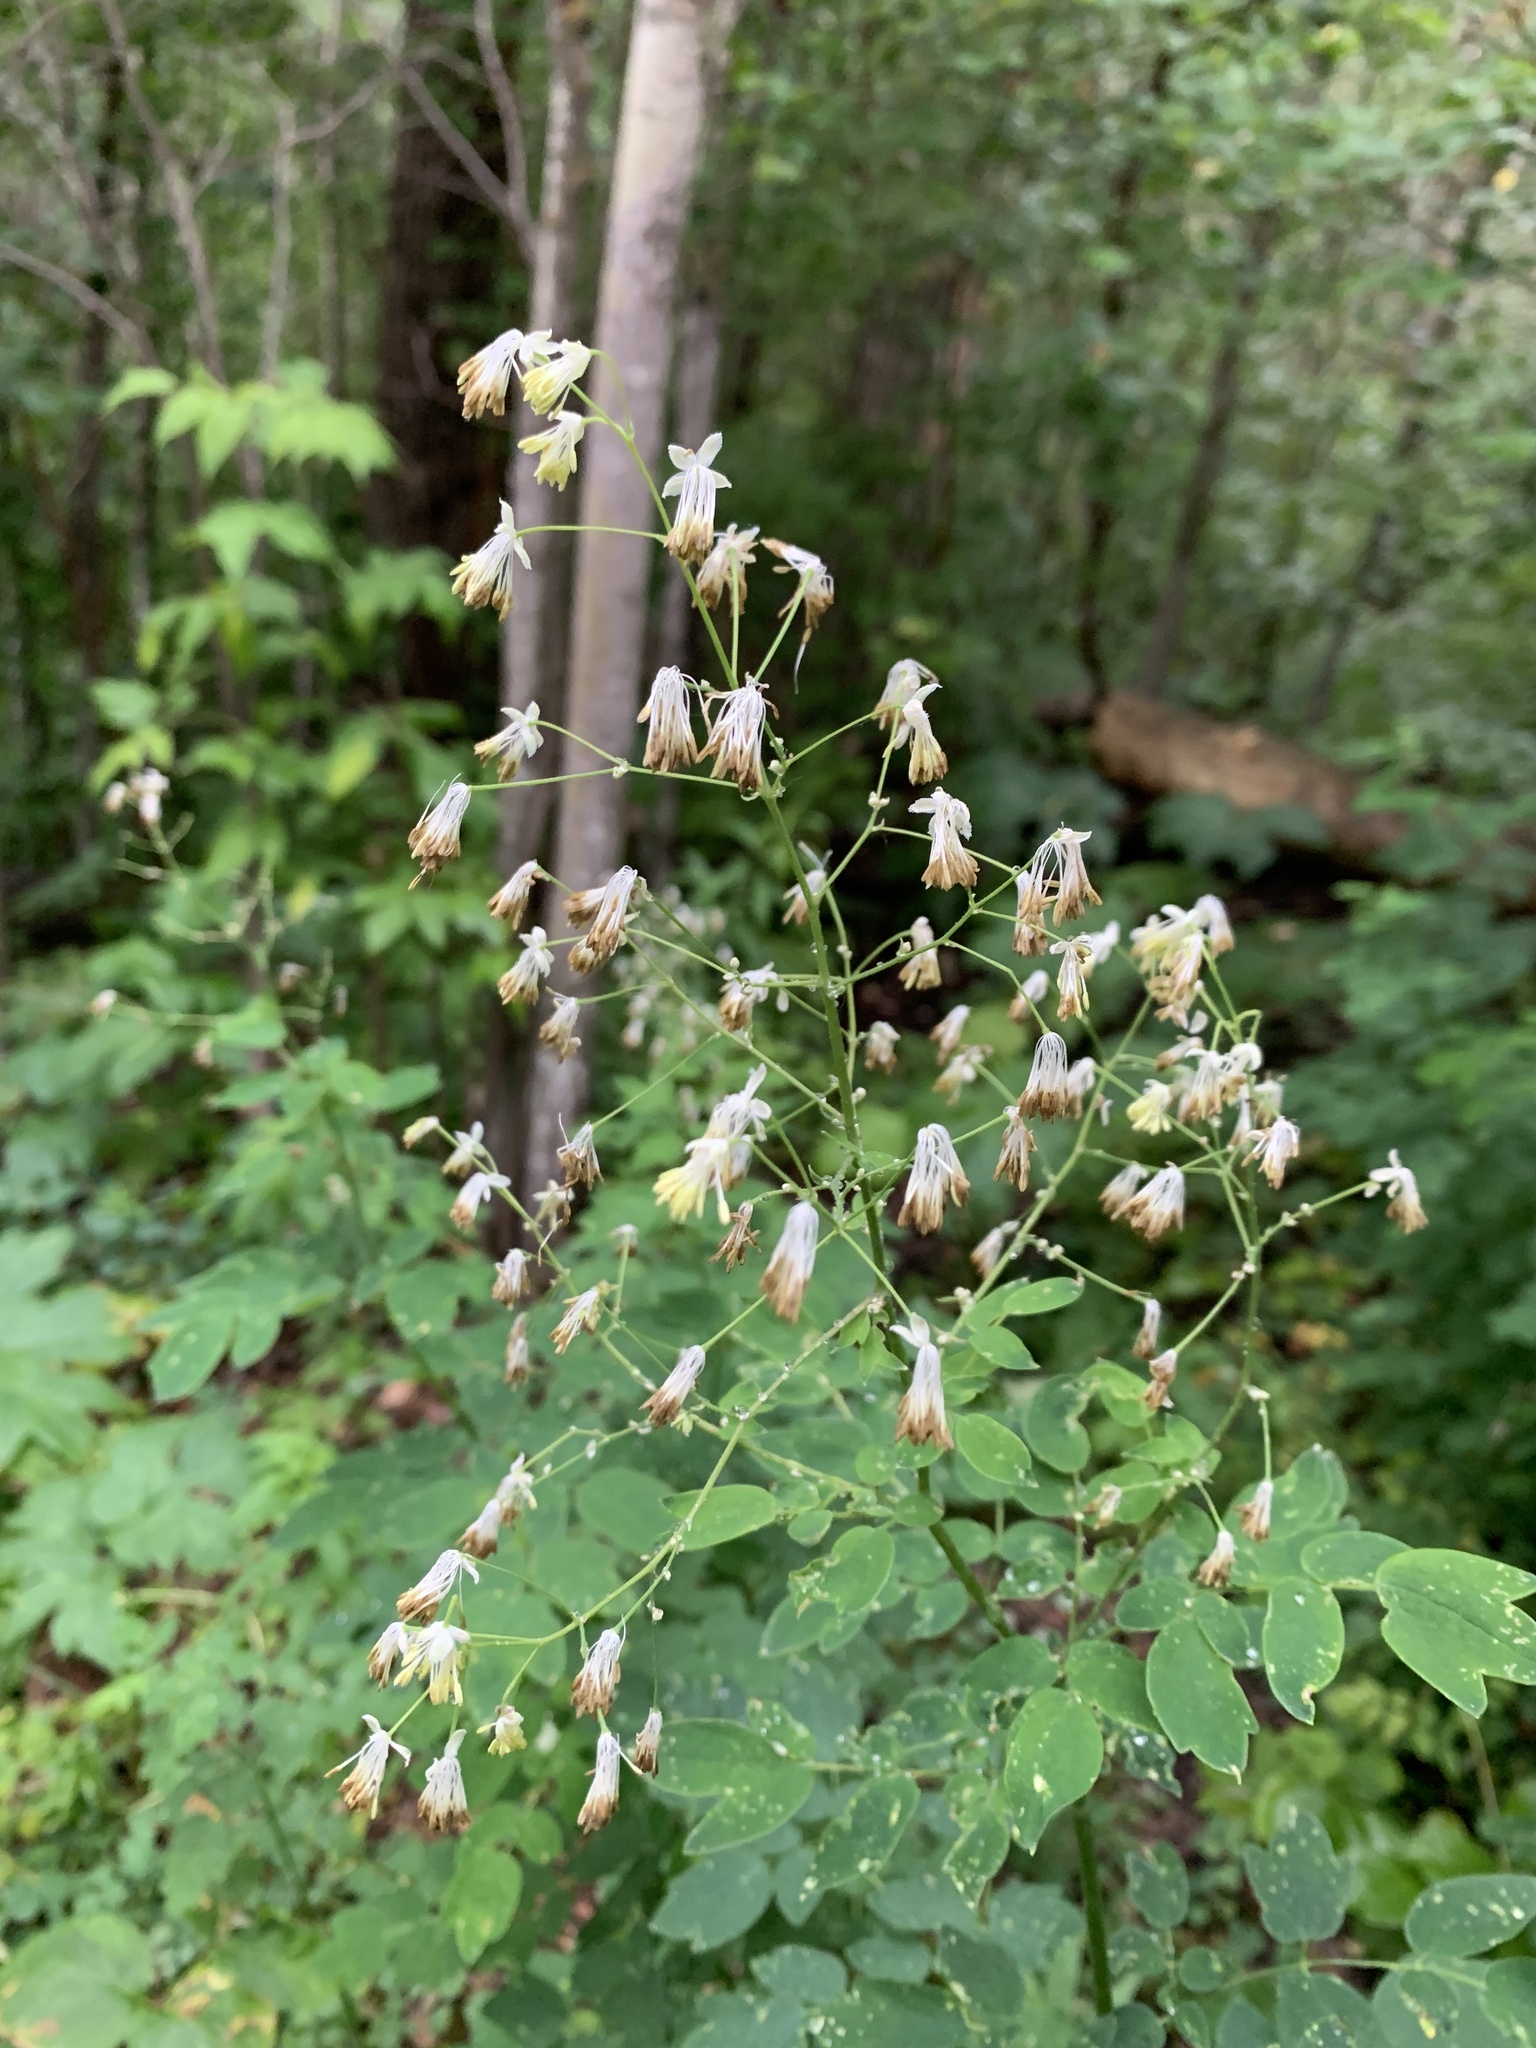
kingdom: Plantae
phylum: Tracheophyta
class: Magnoliopsida
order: Ranunculales
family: Ranunculaceae
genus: Thalictrum
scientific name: Thalictrum dasycarpum
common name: Purple meadow-rue
